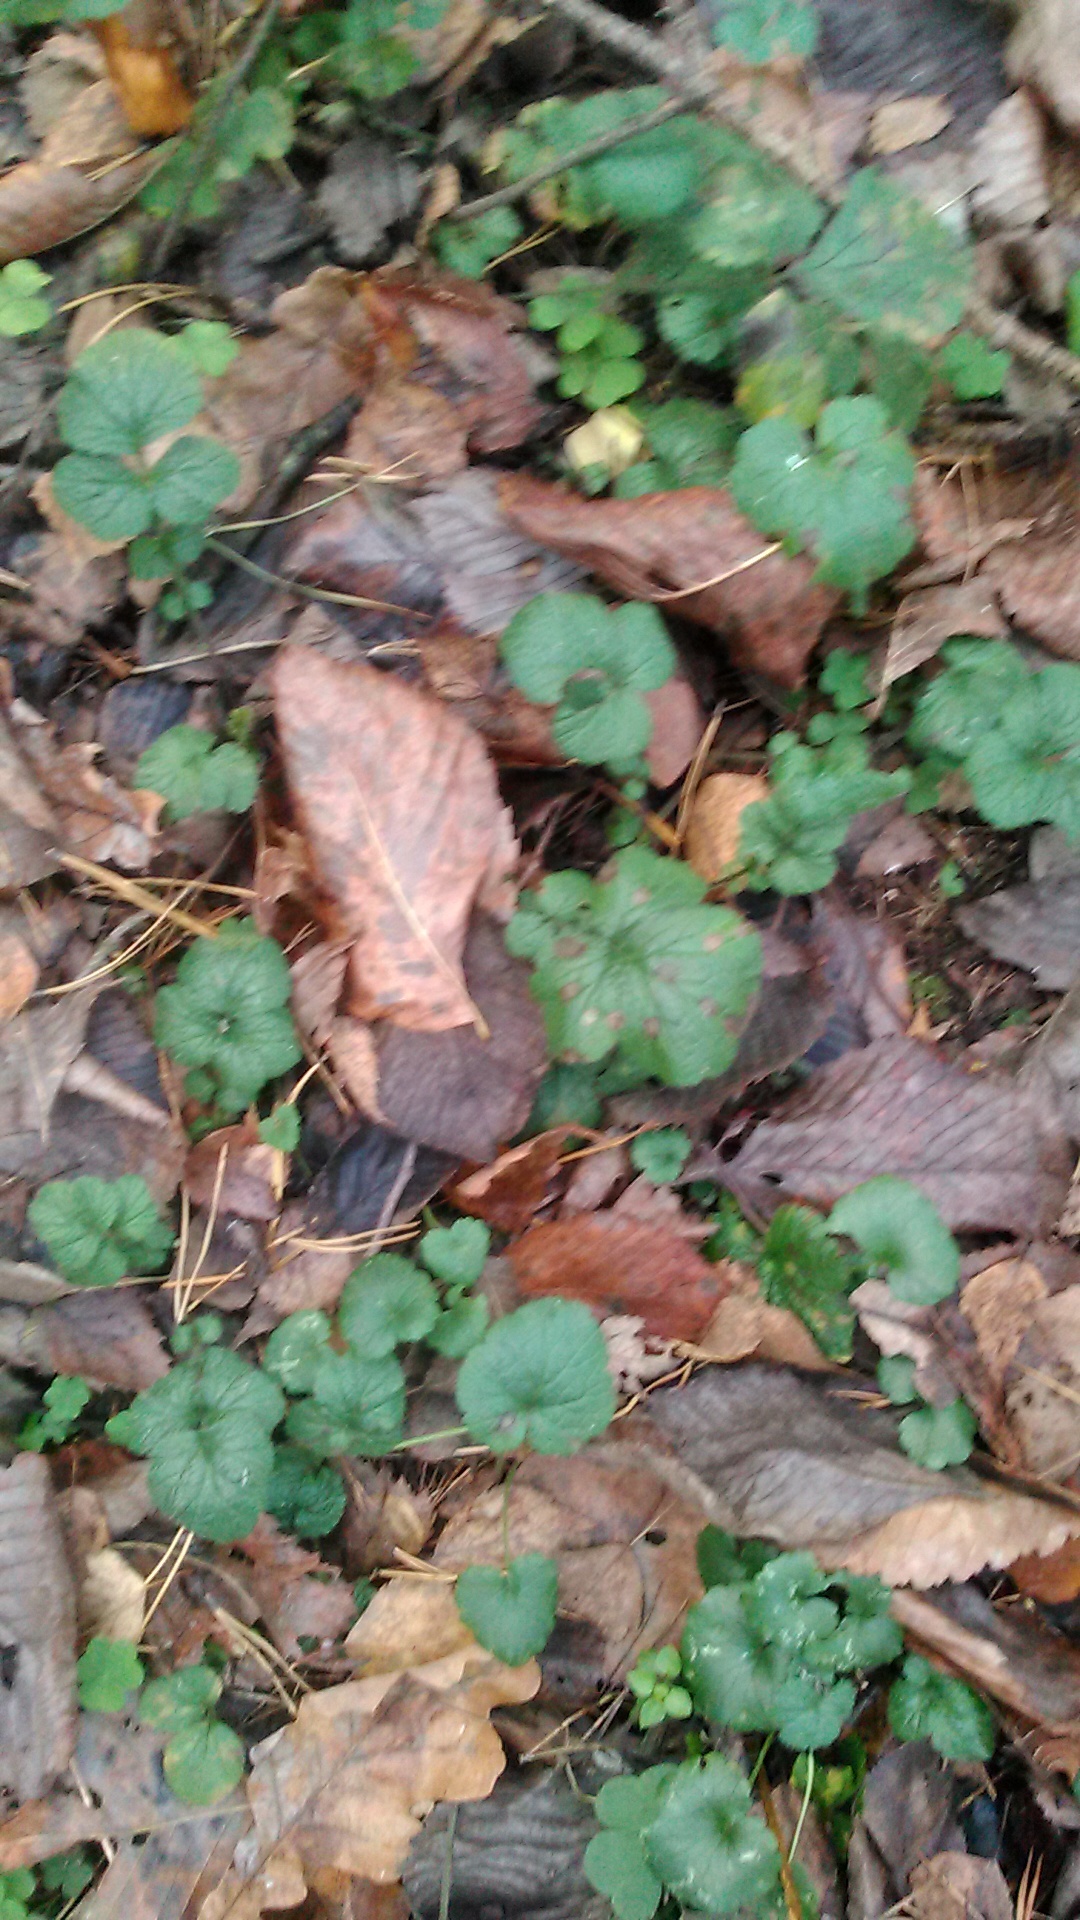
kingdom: Plantae
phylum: Tracheophyta
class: Magnoliopsida
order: Lamiales
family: Lamiaceae
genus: Glechoma
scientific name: Glechoma hederacea
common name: Ground ivy
